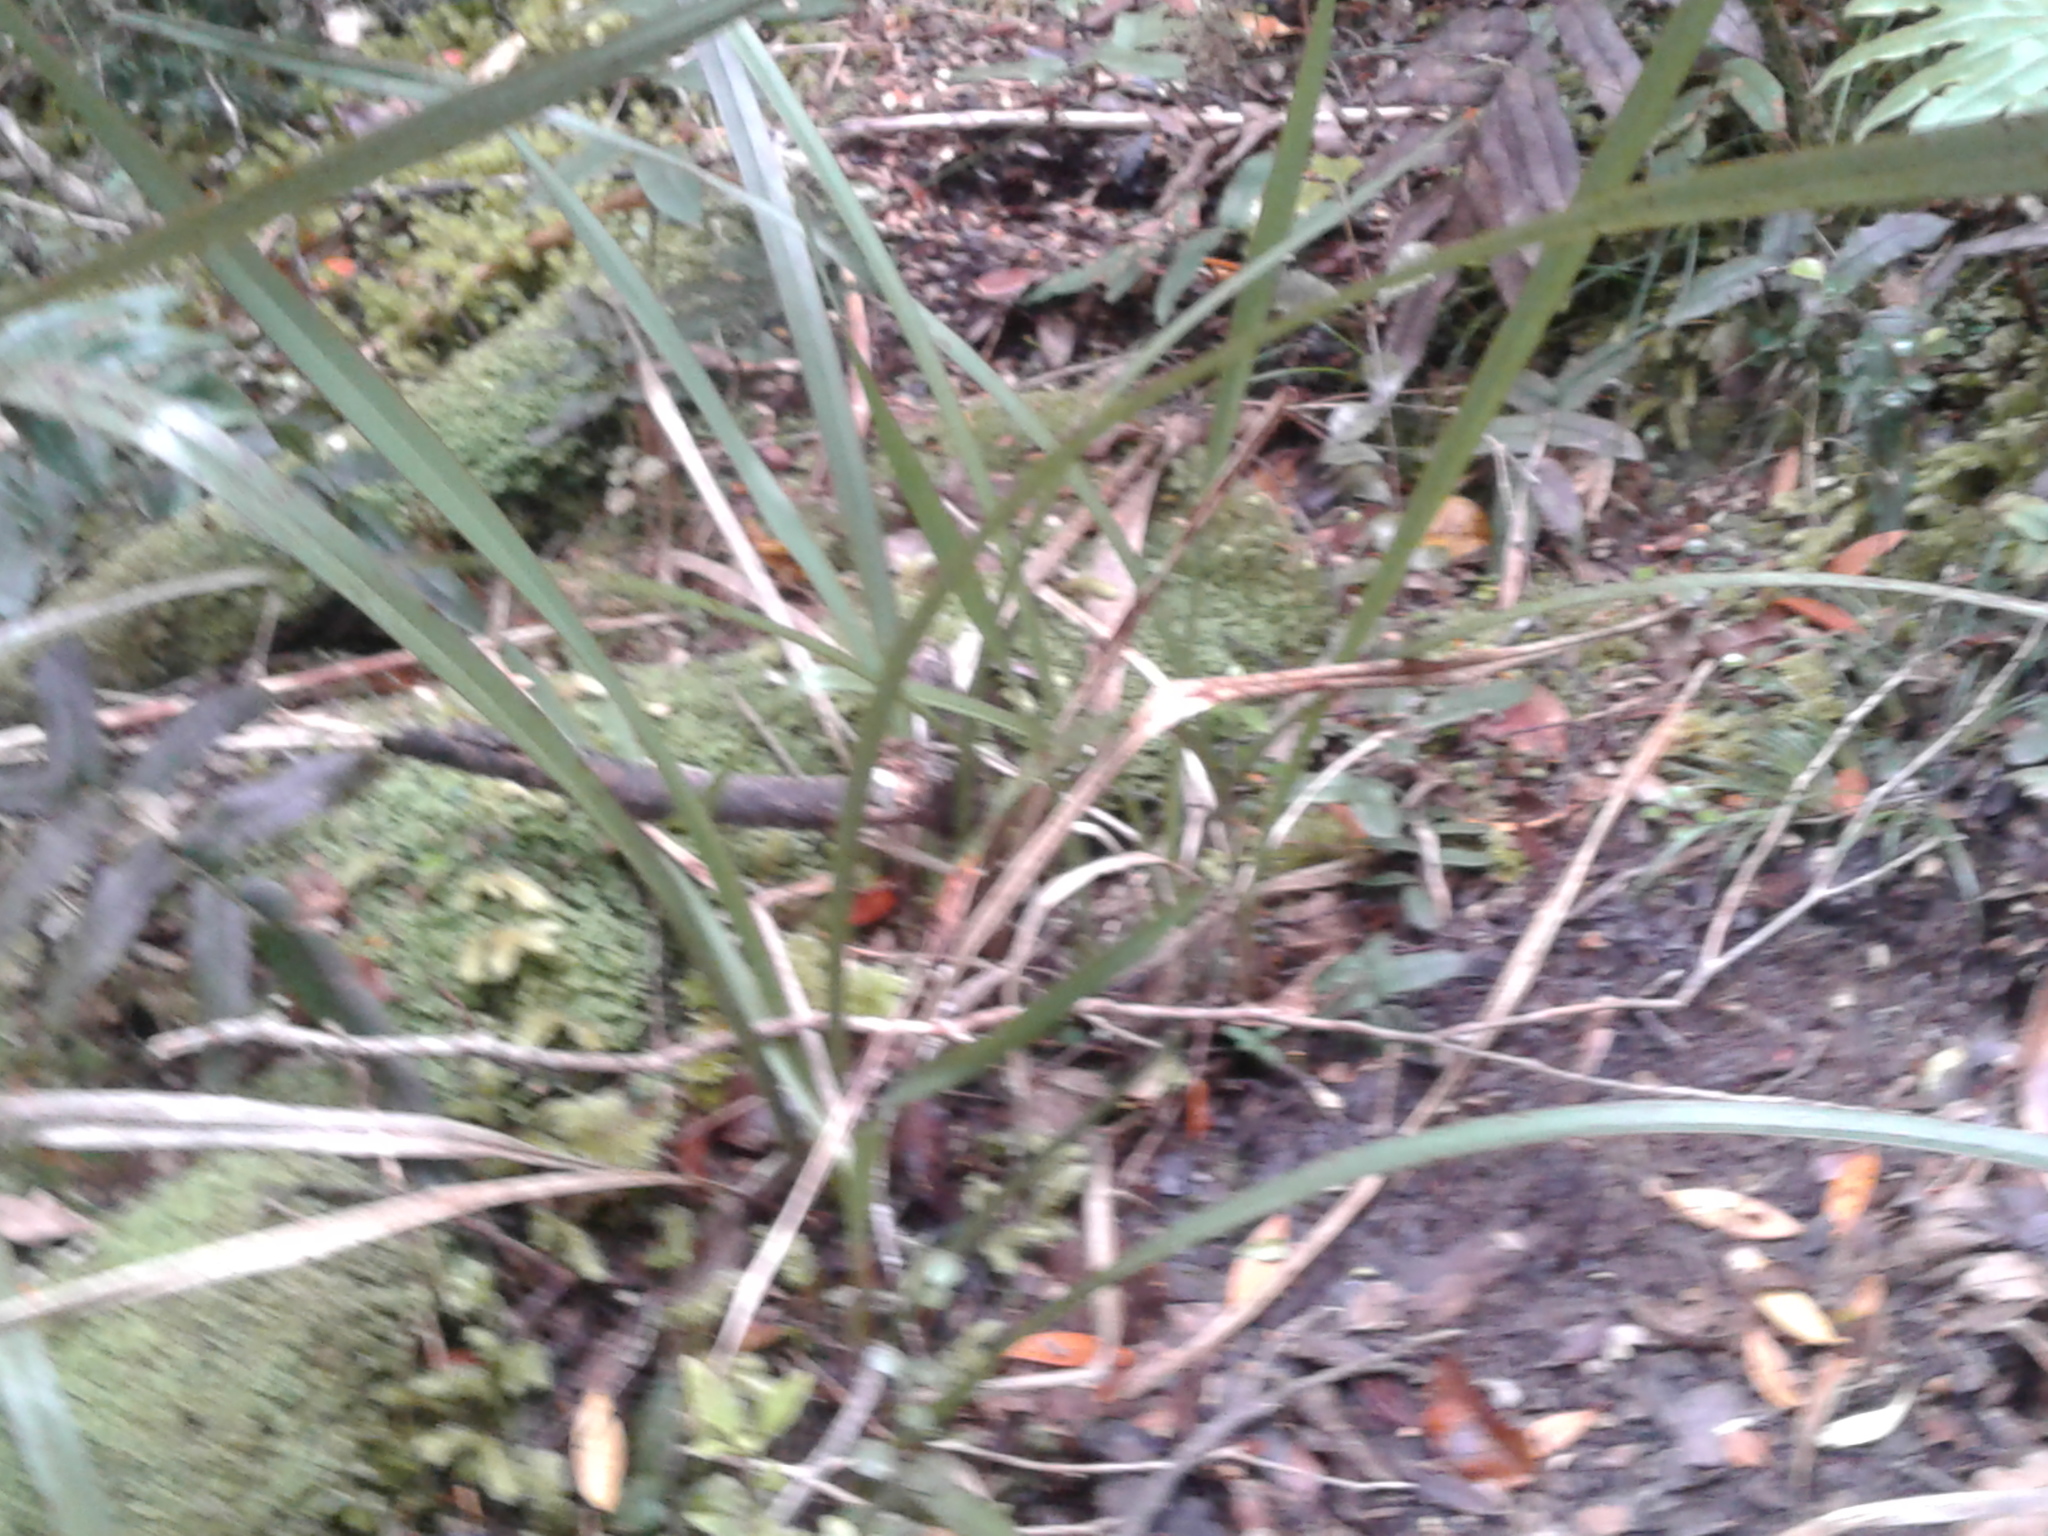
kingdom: Plantae
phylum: Tracheophyta
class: Liliopsida
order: Asparagales
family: Asphodelaceae
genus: Phormium
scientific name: Phormium colensoi
